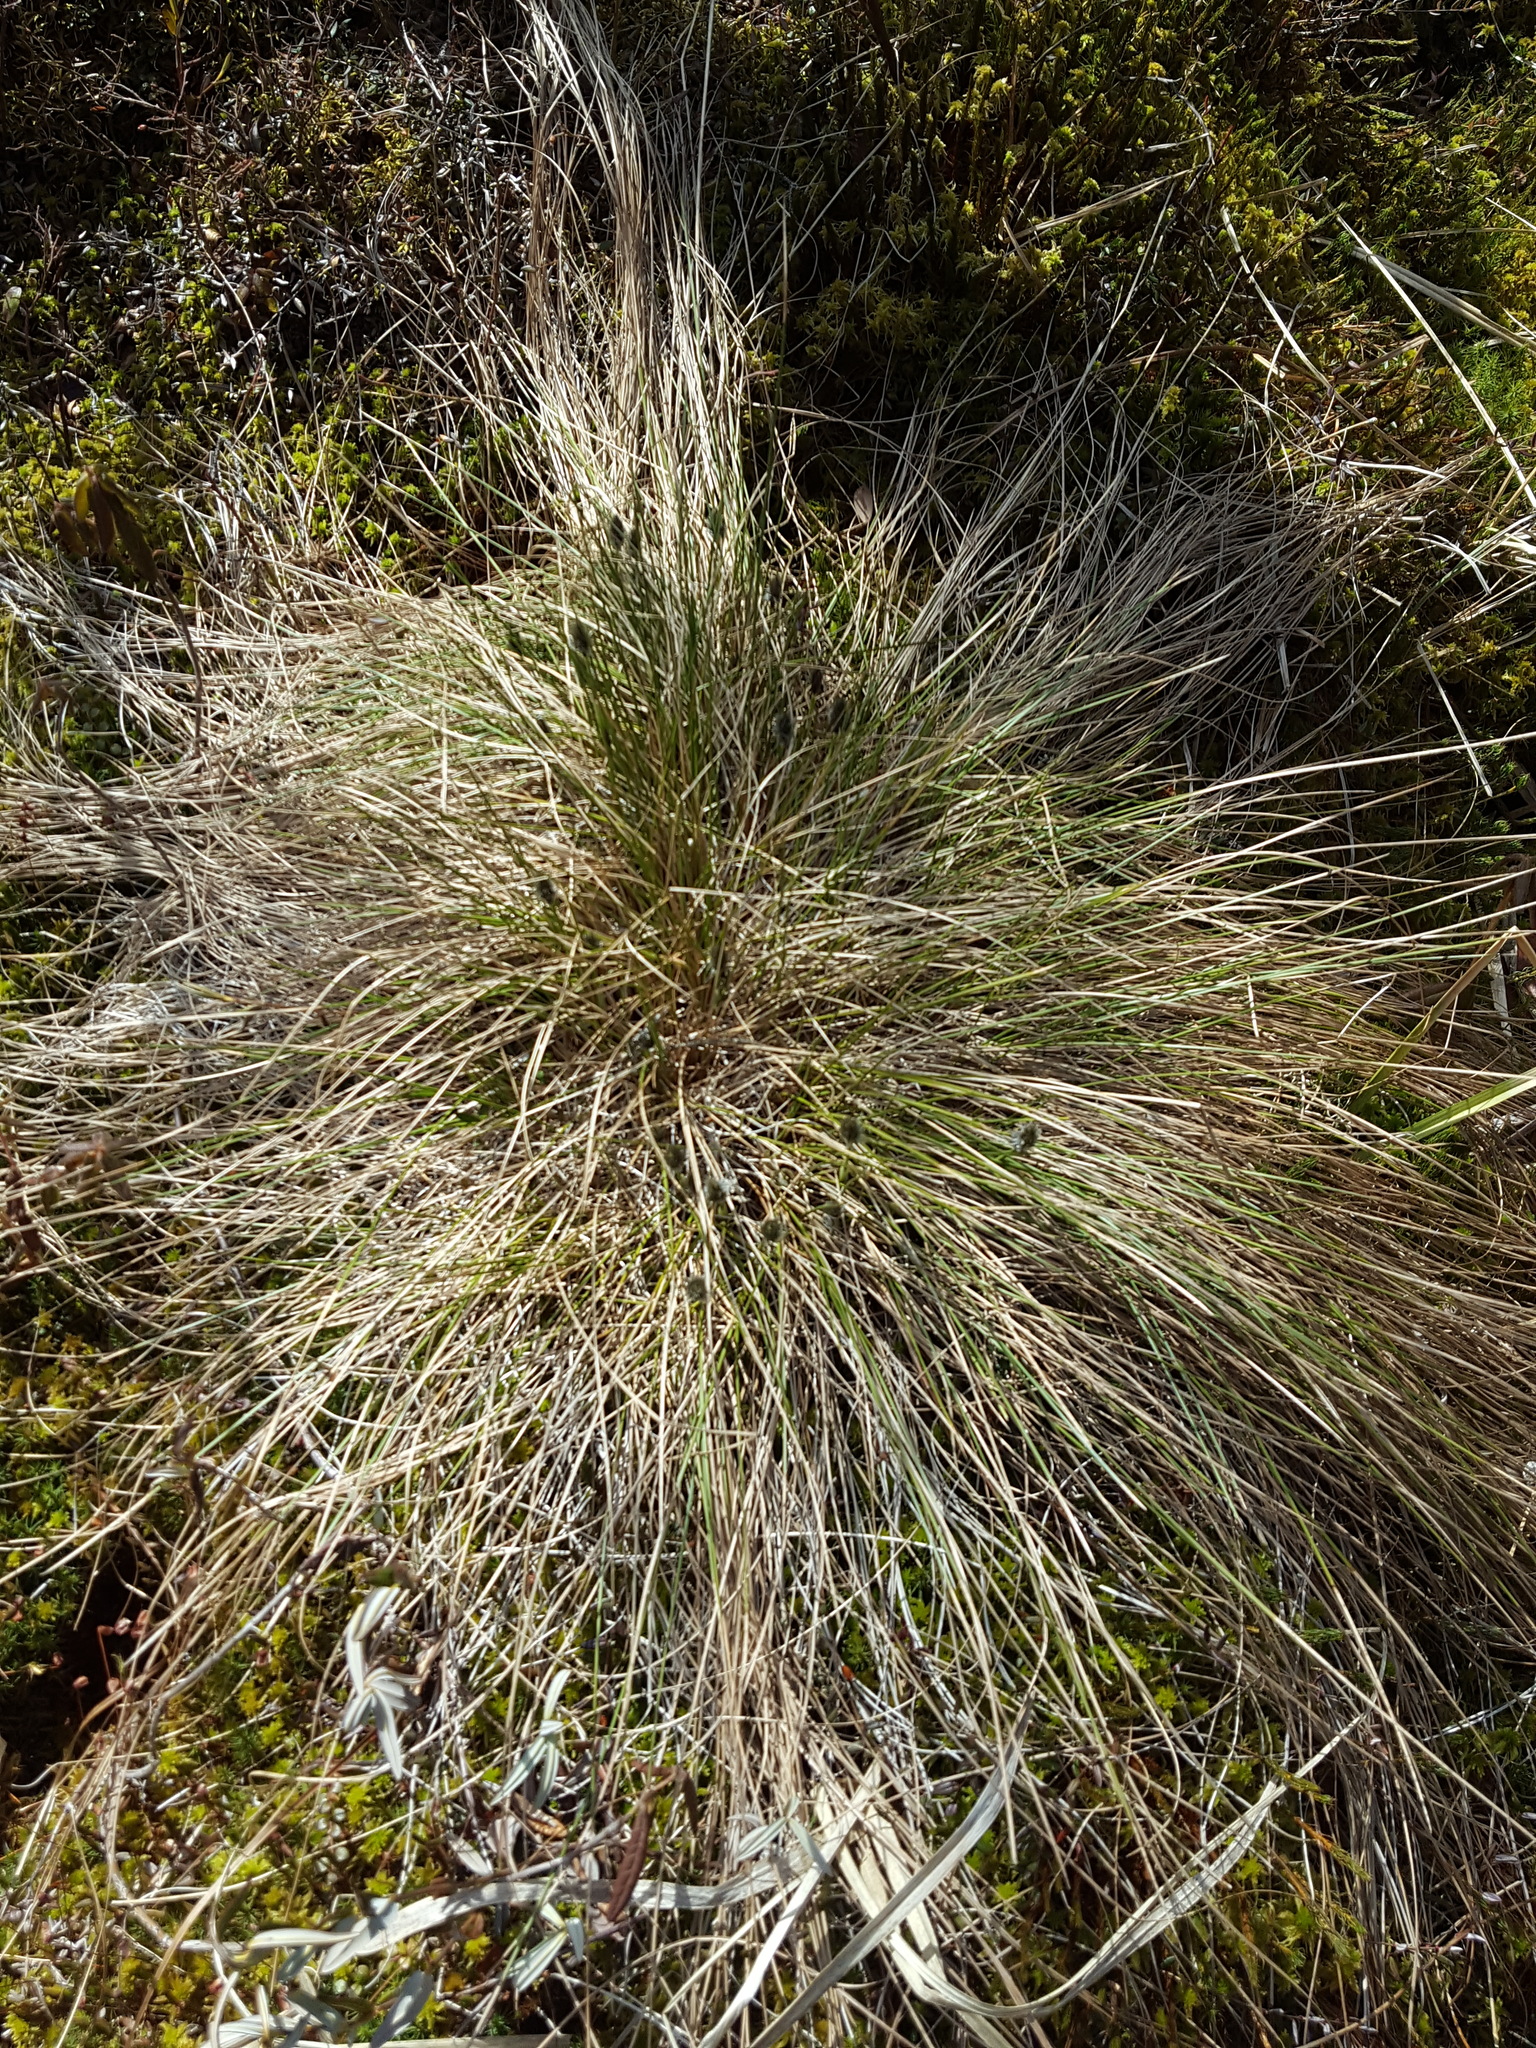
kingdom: Plantae
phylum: Tracheophyta
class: Liliopsida
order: Poales
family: Cyperaceae
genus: Eriophorum
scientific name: Eriophorum vaginatum
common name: Hare's-tail cottongrass
